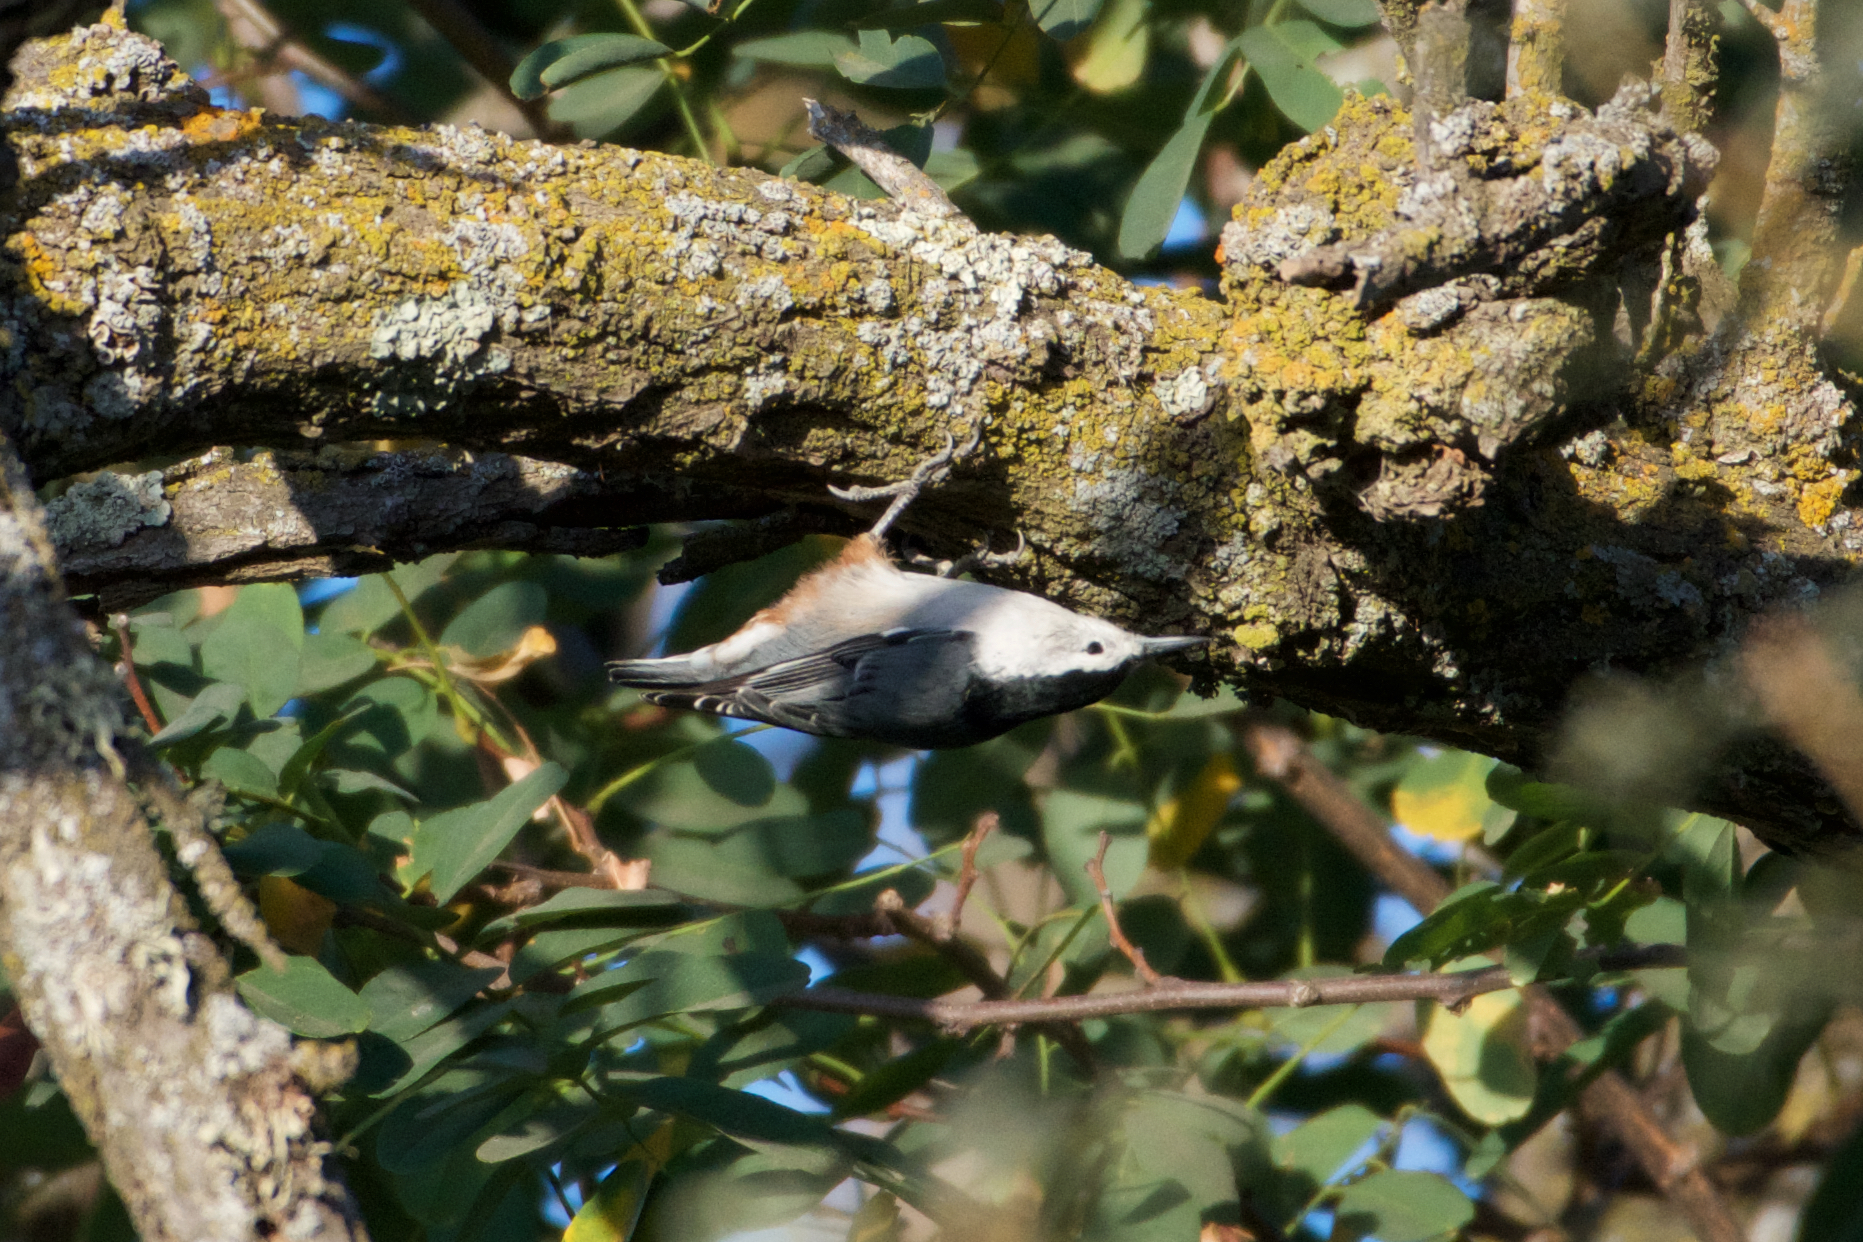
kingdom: Animalia
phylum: Chordata
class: Aves
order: Passeriformes
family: Sittidae
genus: Sitta
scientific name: Sitta carolinensis
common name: White-breasted nuthatch
